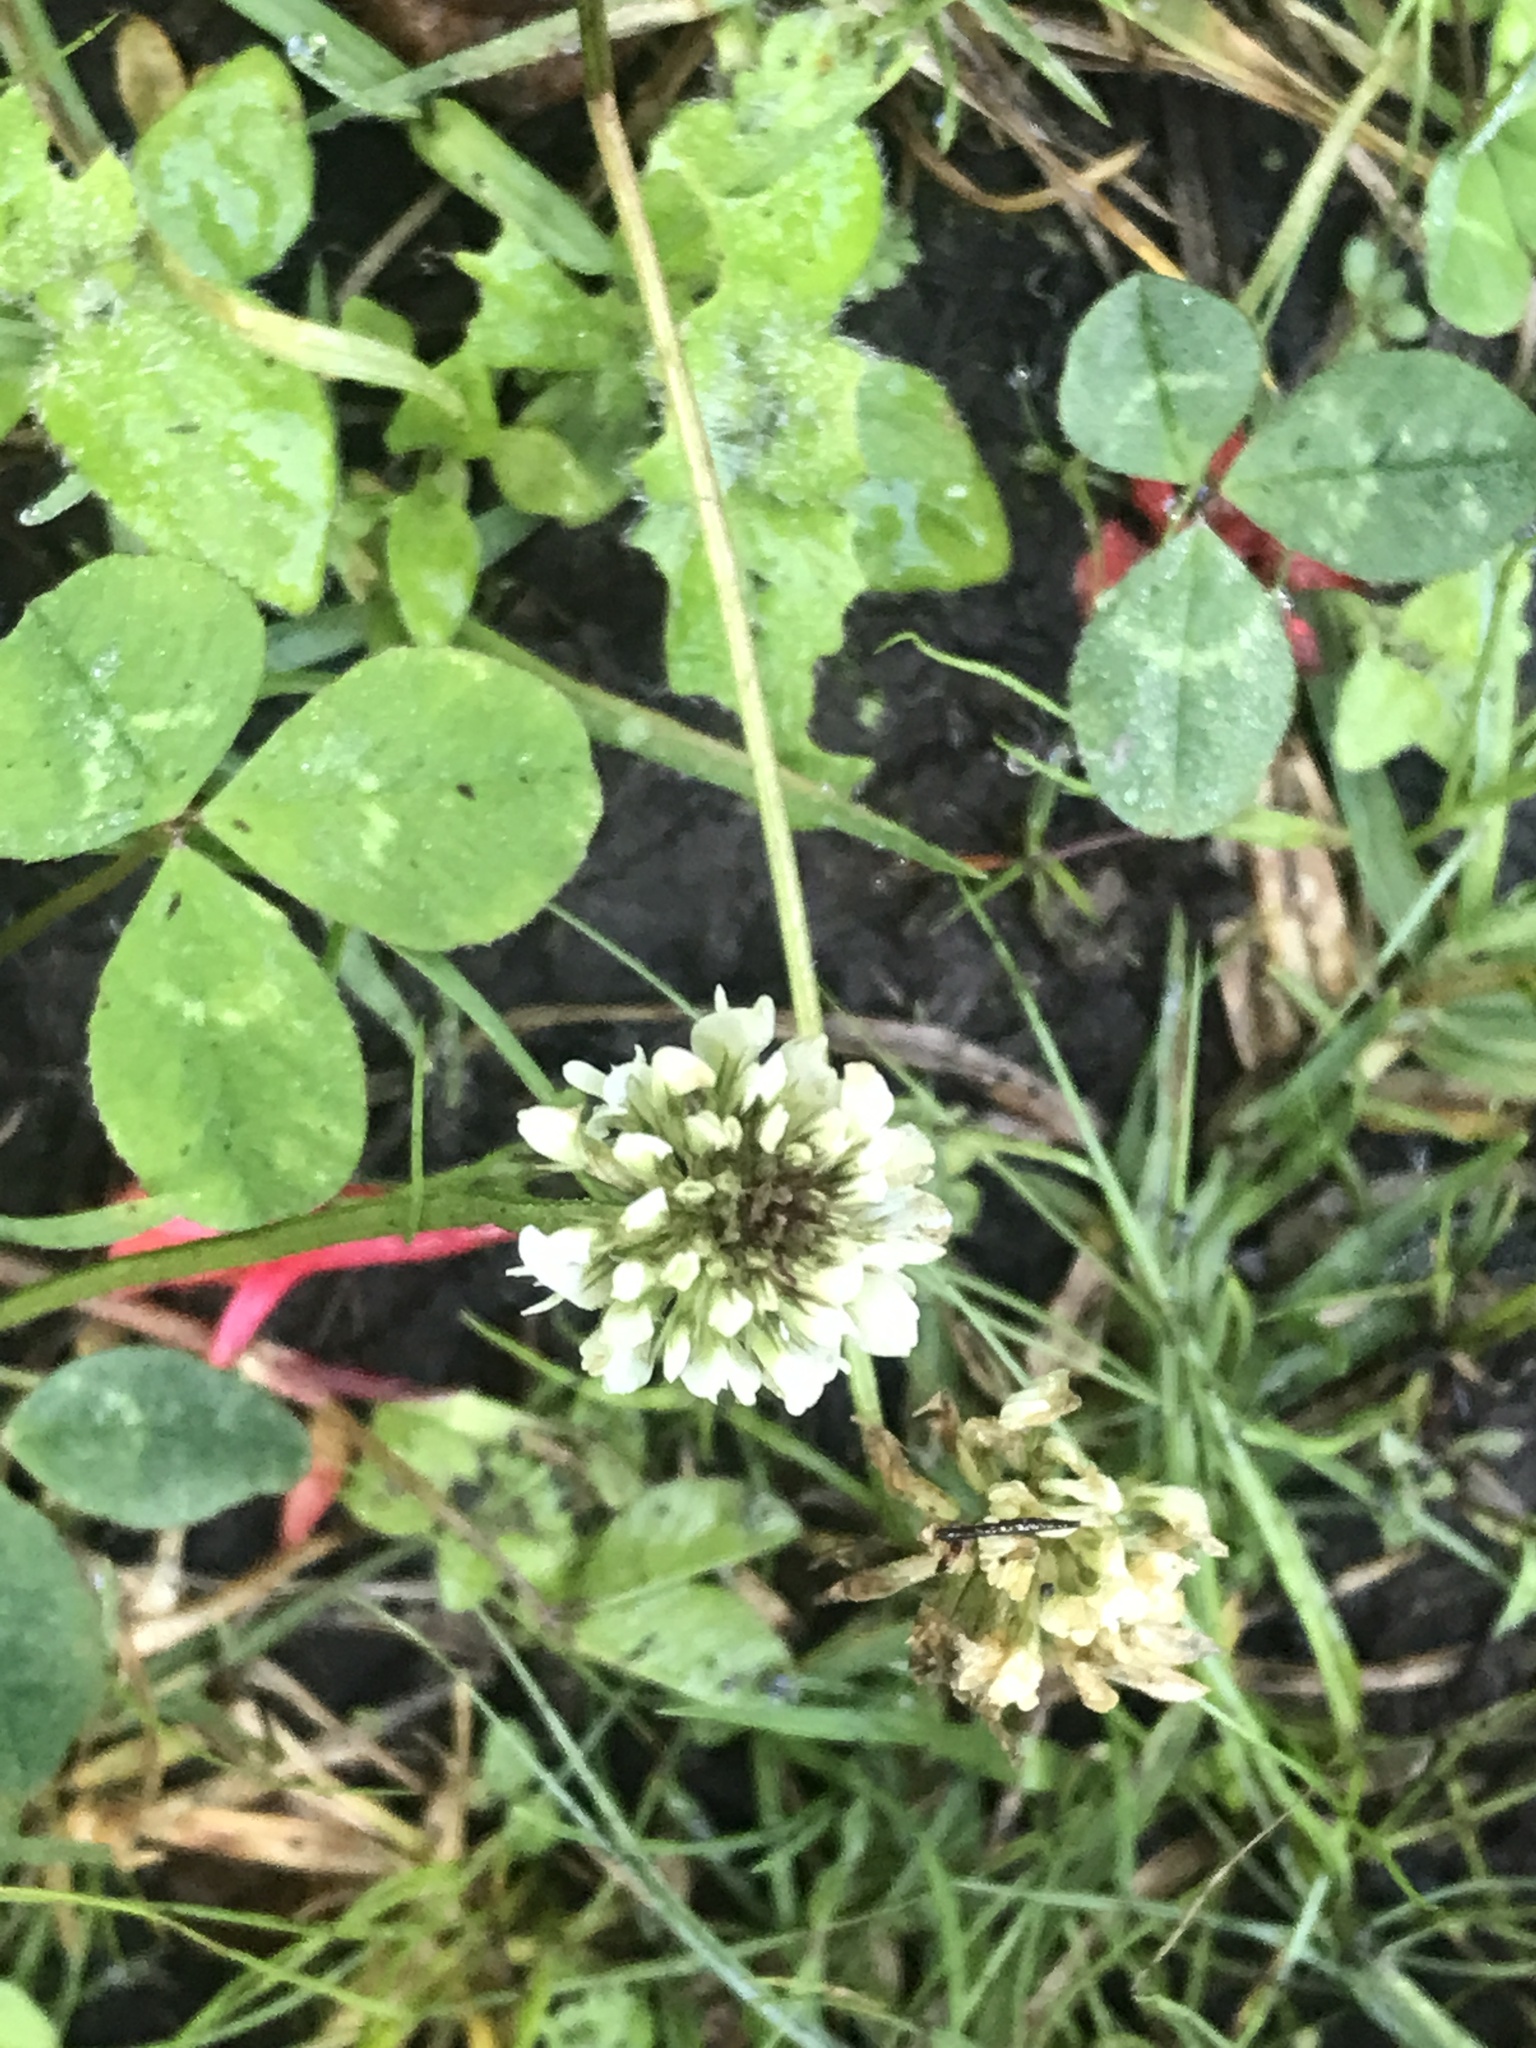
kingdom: Plantae
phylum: Tracheophyta
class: Magnoliopsida
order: Fabales
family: Fabaceae
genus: Trifolium
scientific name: Trifolium repens
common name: White clover
